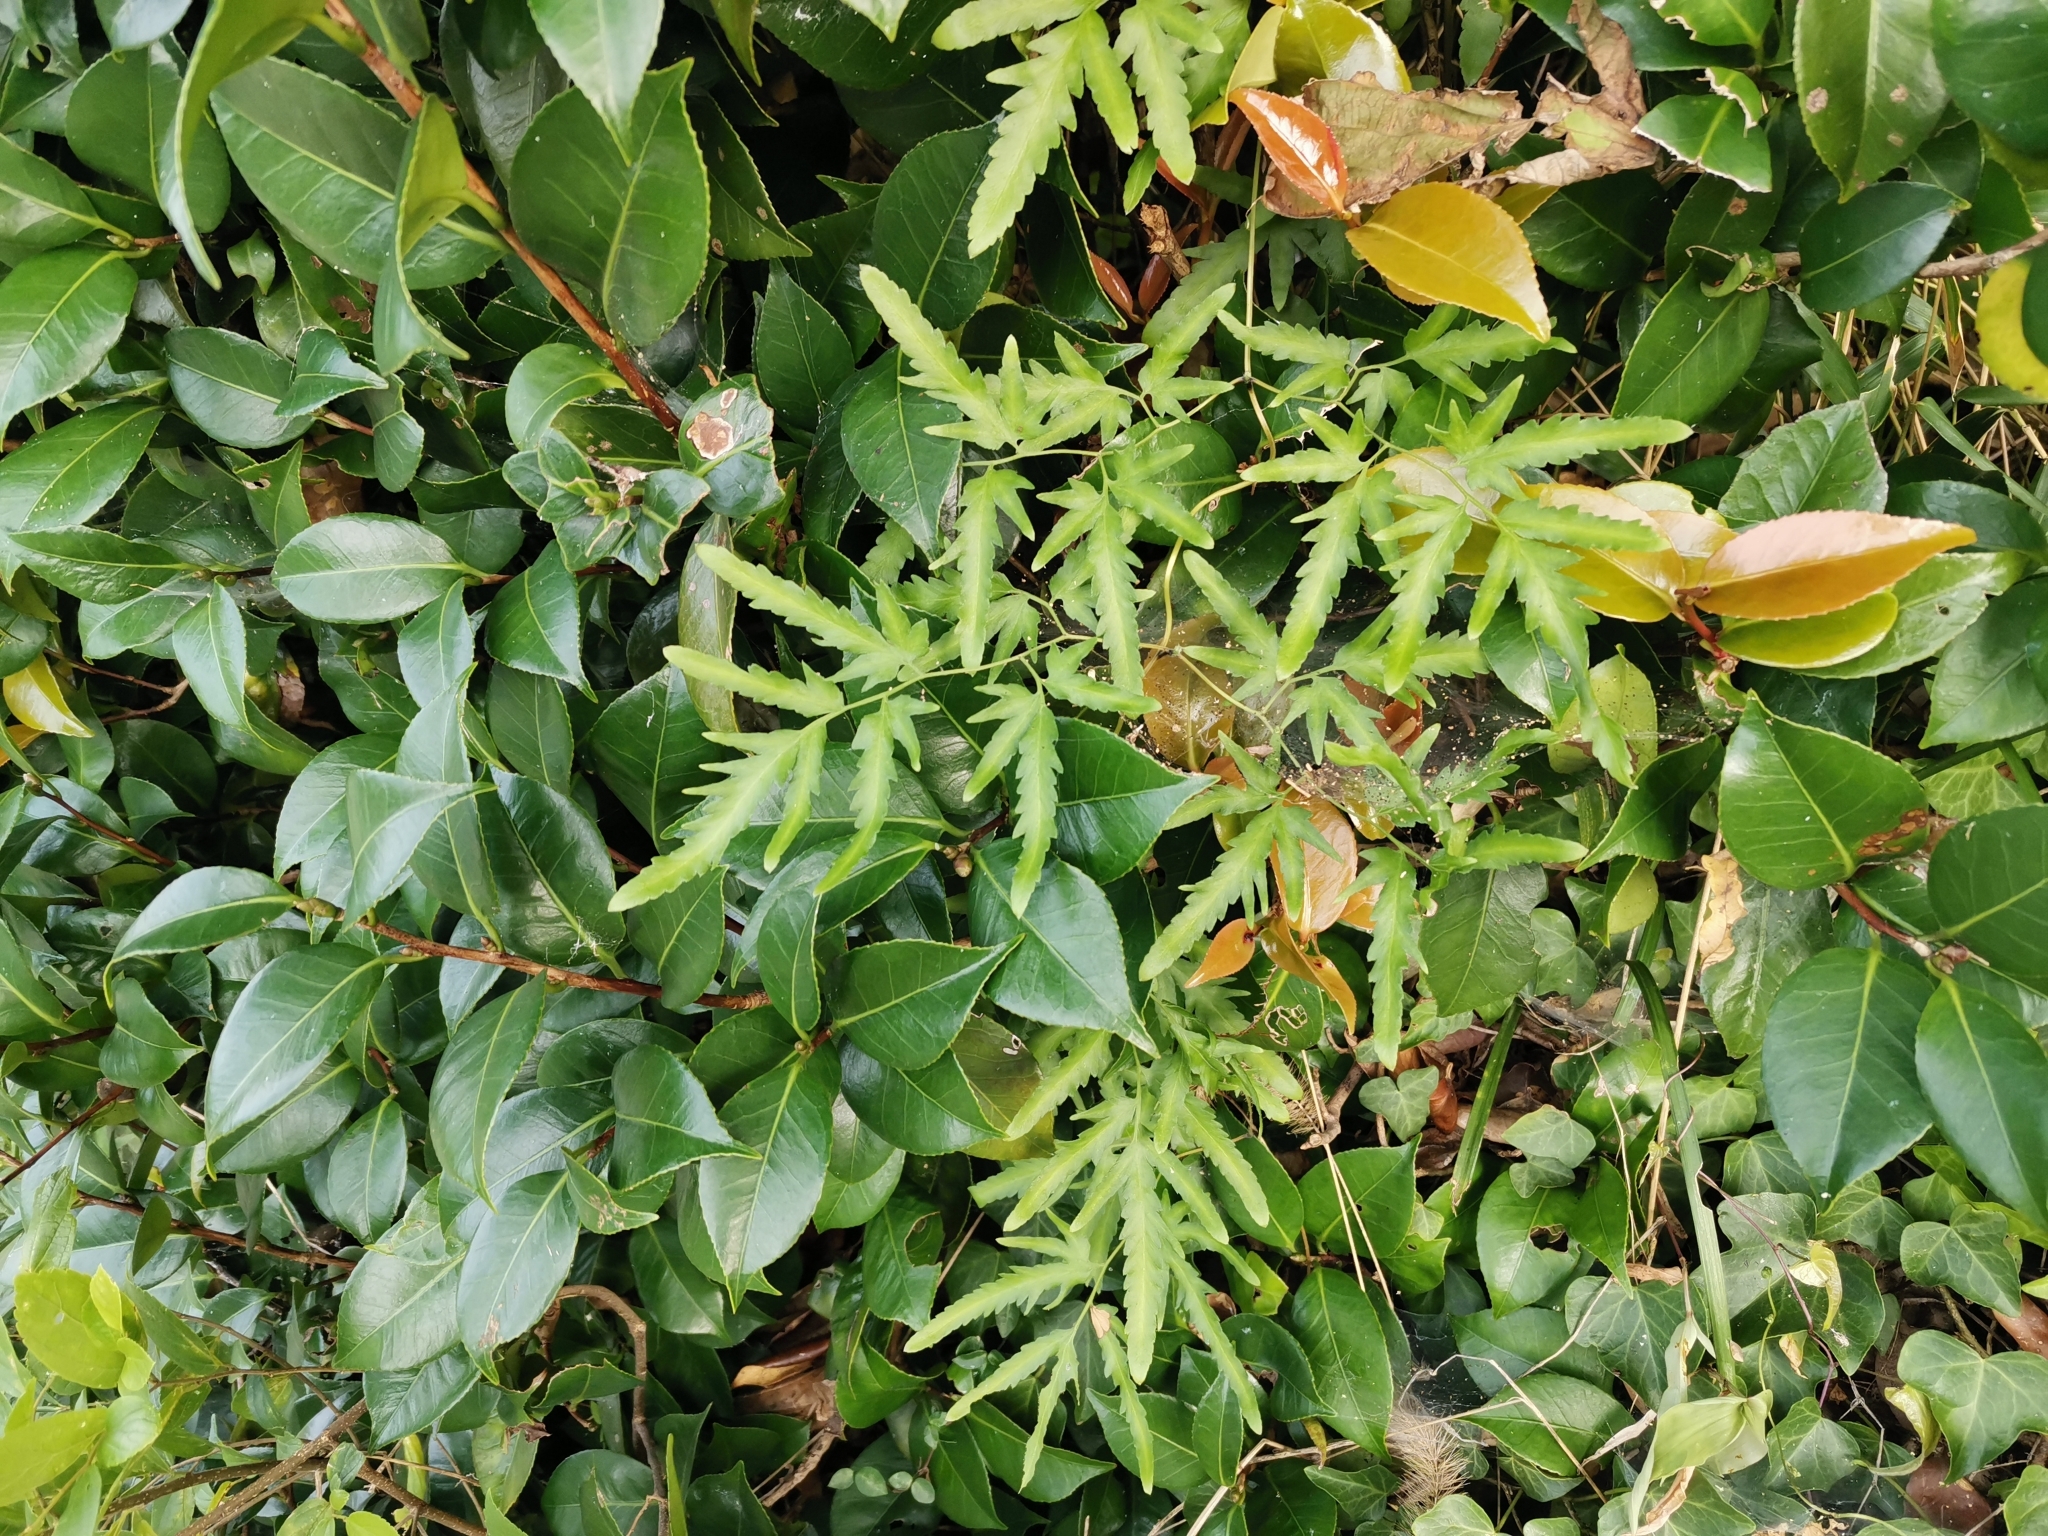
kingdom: Plantae
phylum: Tracheophyta
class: Polypodiopsida
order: Schizaeales
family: Lygodiaceae
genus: Lygodium
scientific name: Lygodium japonicum
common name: Japanese climbing fern
